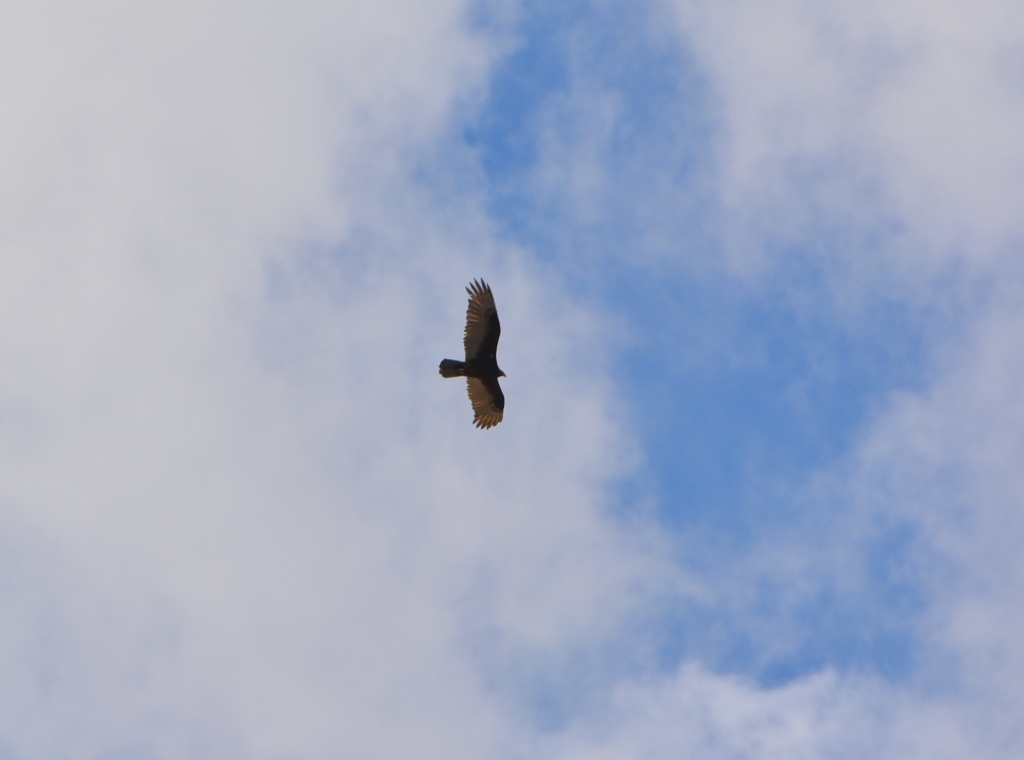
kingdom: Animalia
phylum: Chordata
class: Aves
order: Accipitriformes
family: Cathartidae
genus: Cathartes
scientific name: Cathartes aura
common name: Turkey vulture
